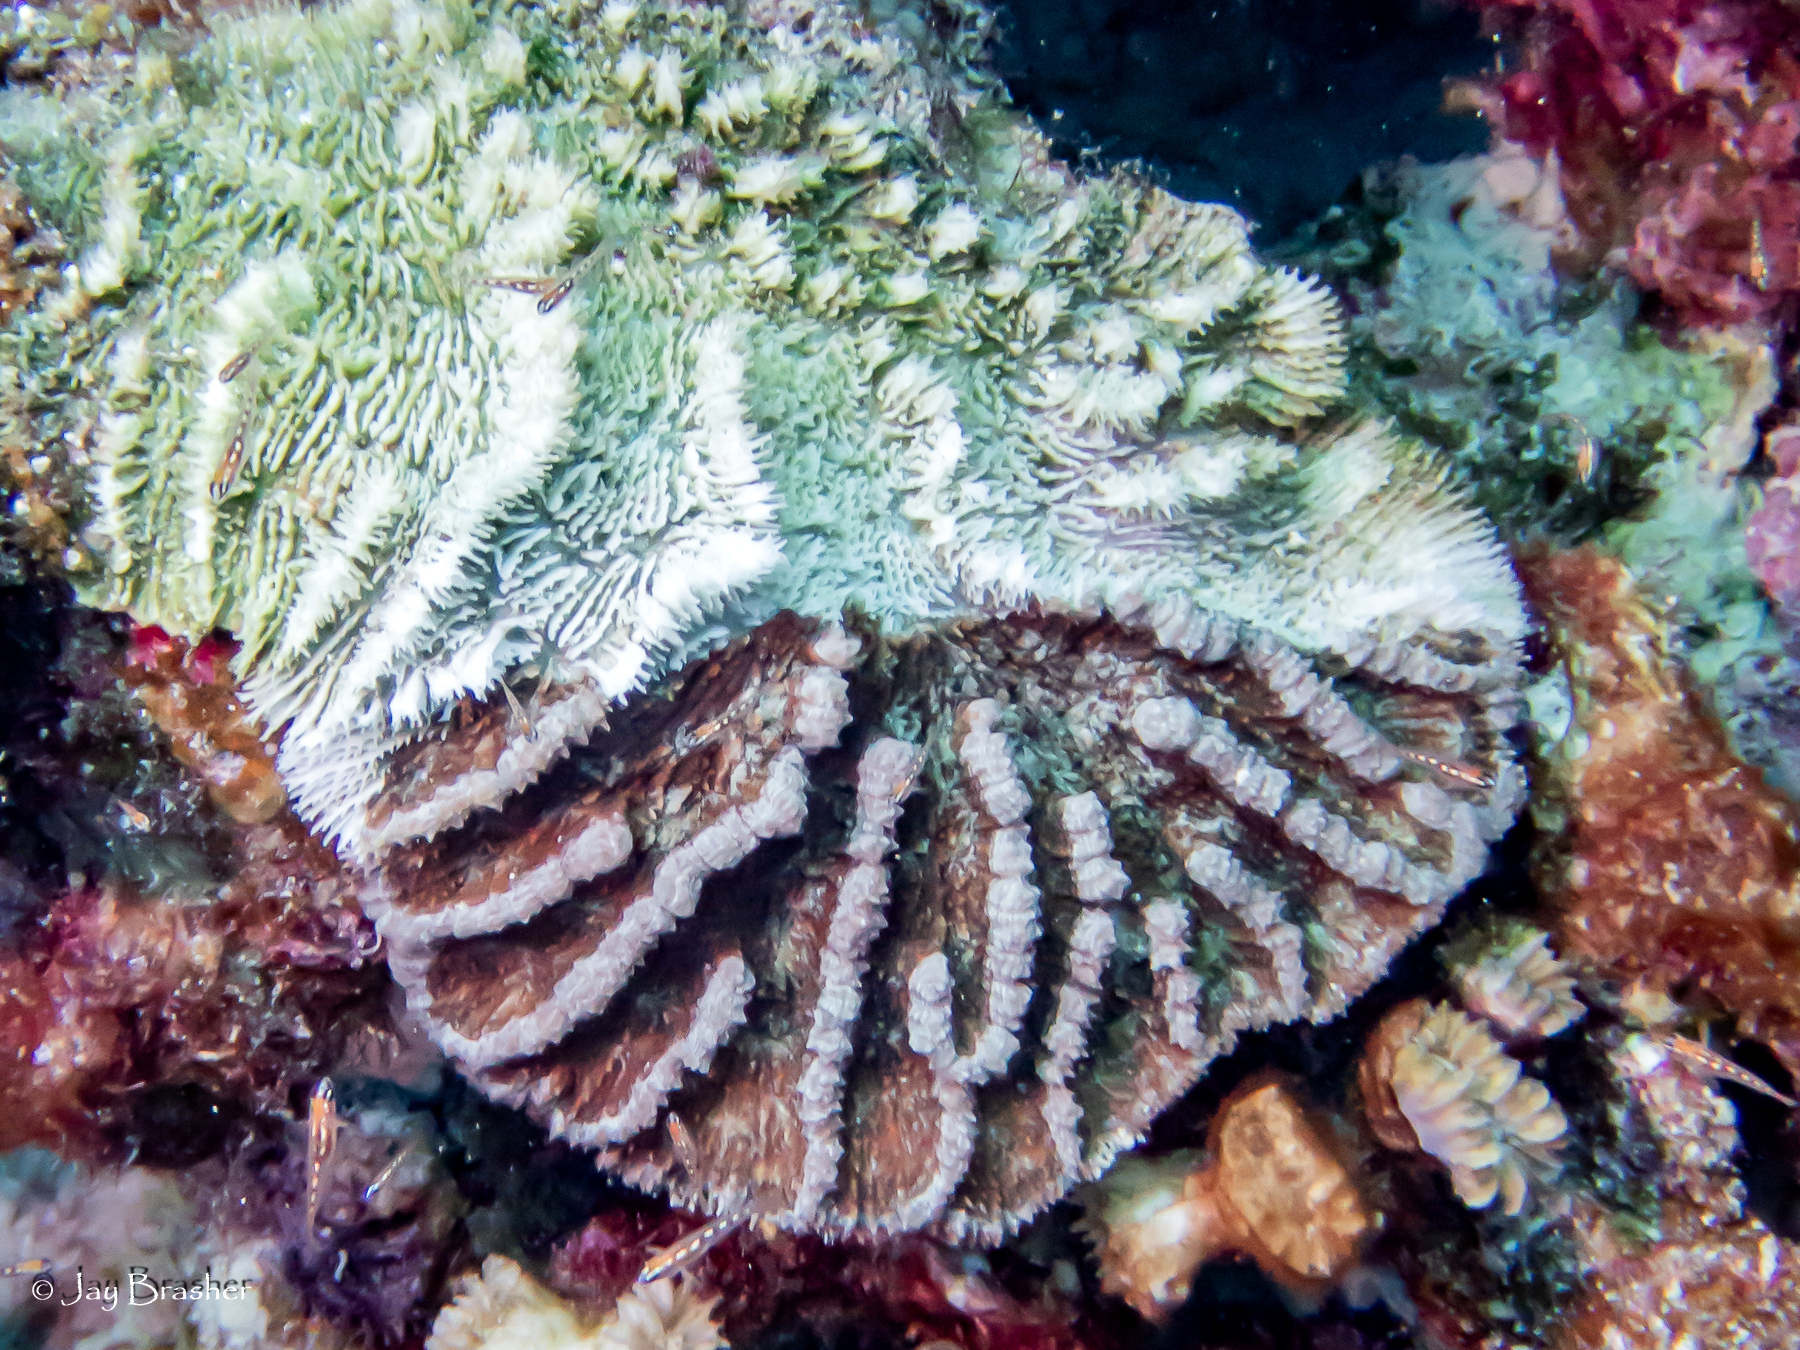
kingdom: Animalia
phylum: Cnidaria
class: Anthozoa
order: Scleractinia
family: Faviidae
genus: Mycetophyllia
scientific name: Mycetophyllia lamarckiana
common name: Ridged cactus coral
